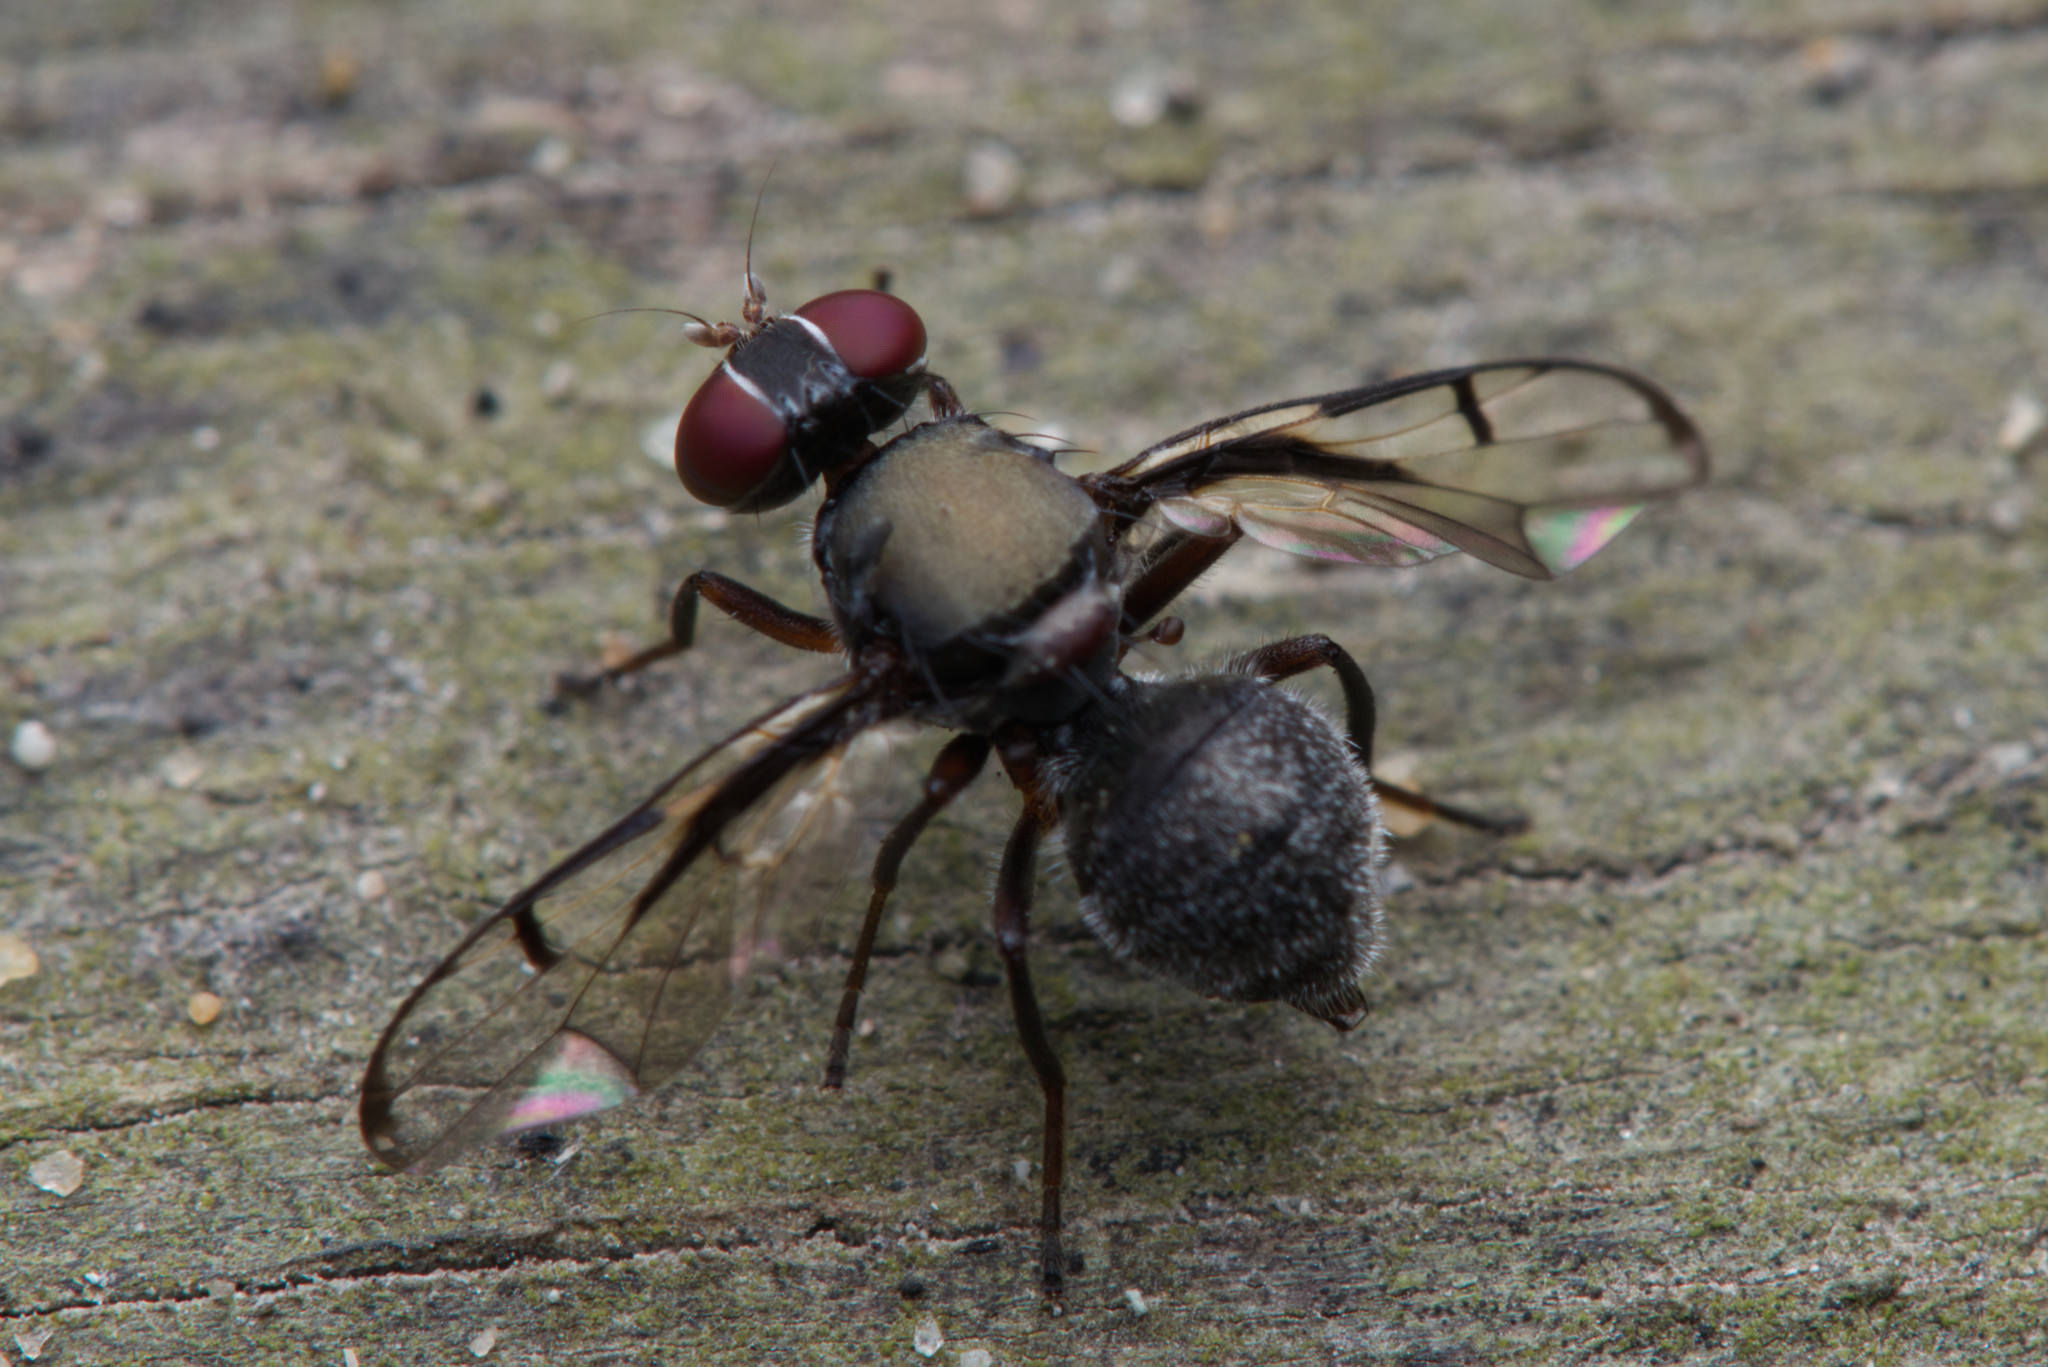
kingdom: Animalia
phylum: Arthropoda
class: Insecta
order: Diptera
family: Platystomatidae
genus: Pogonortalis
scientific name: Pogonortalis doclea
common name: Boatman fly
